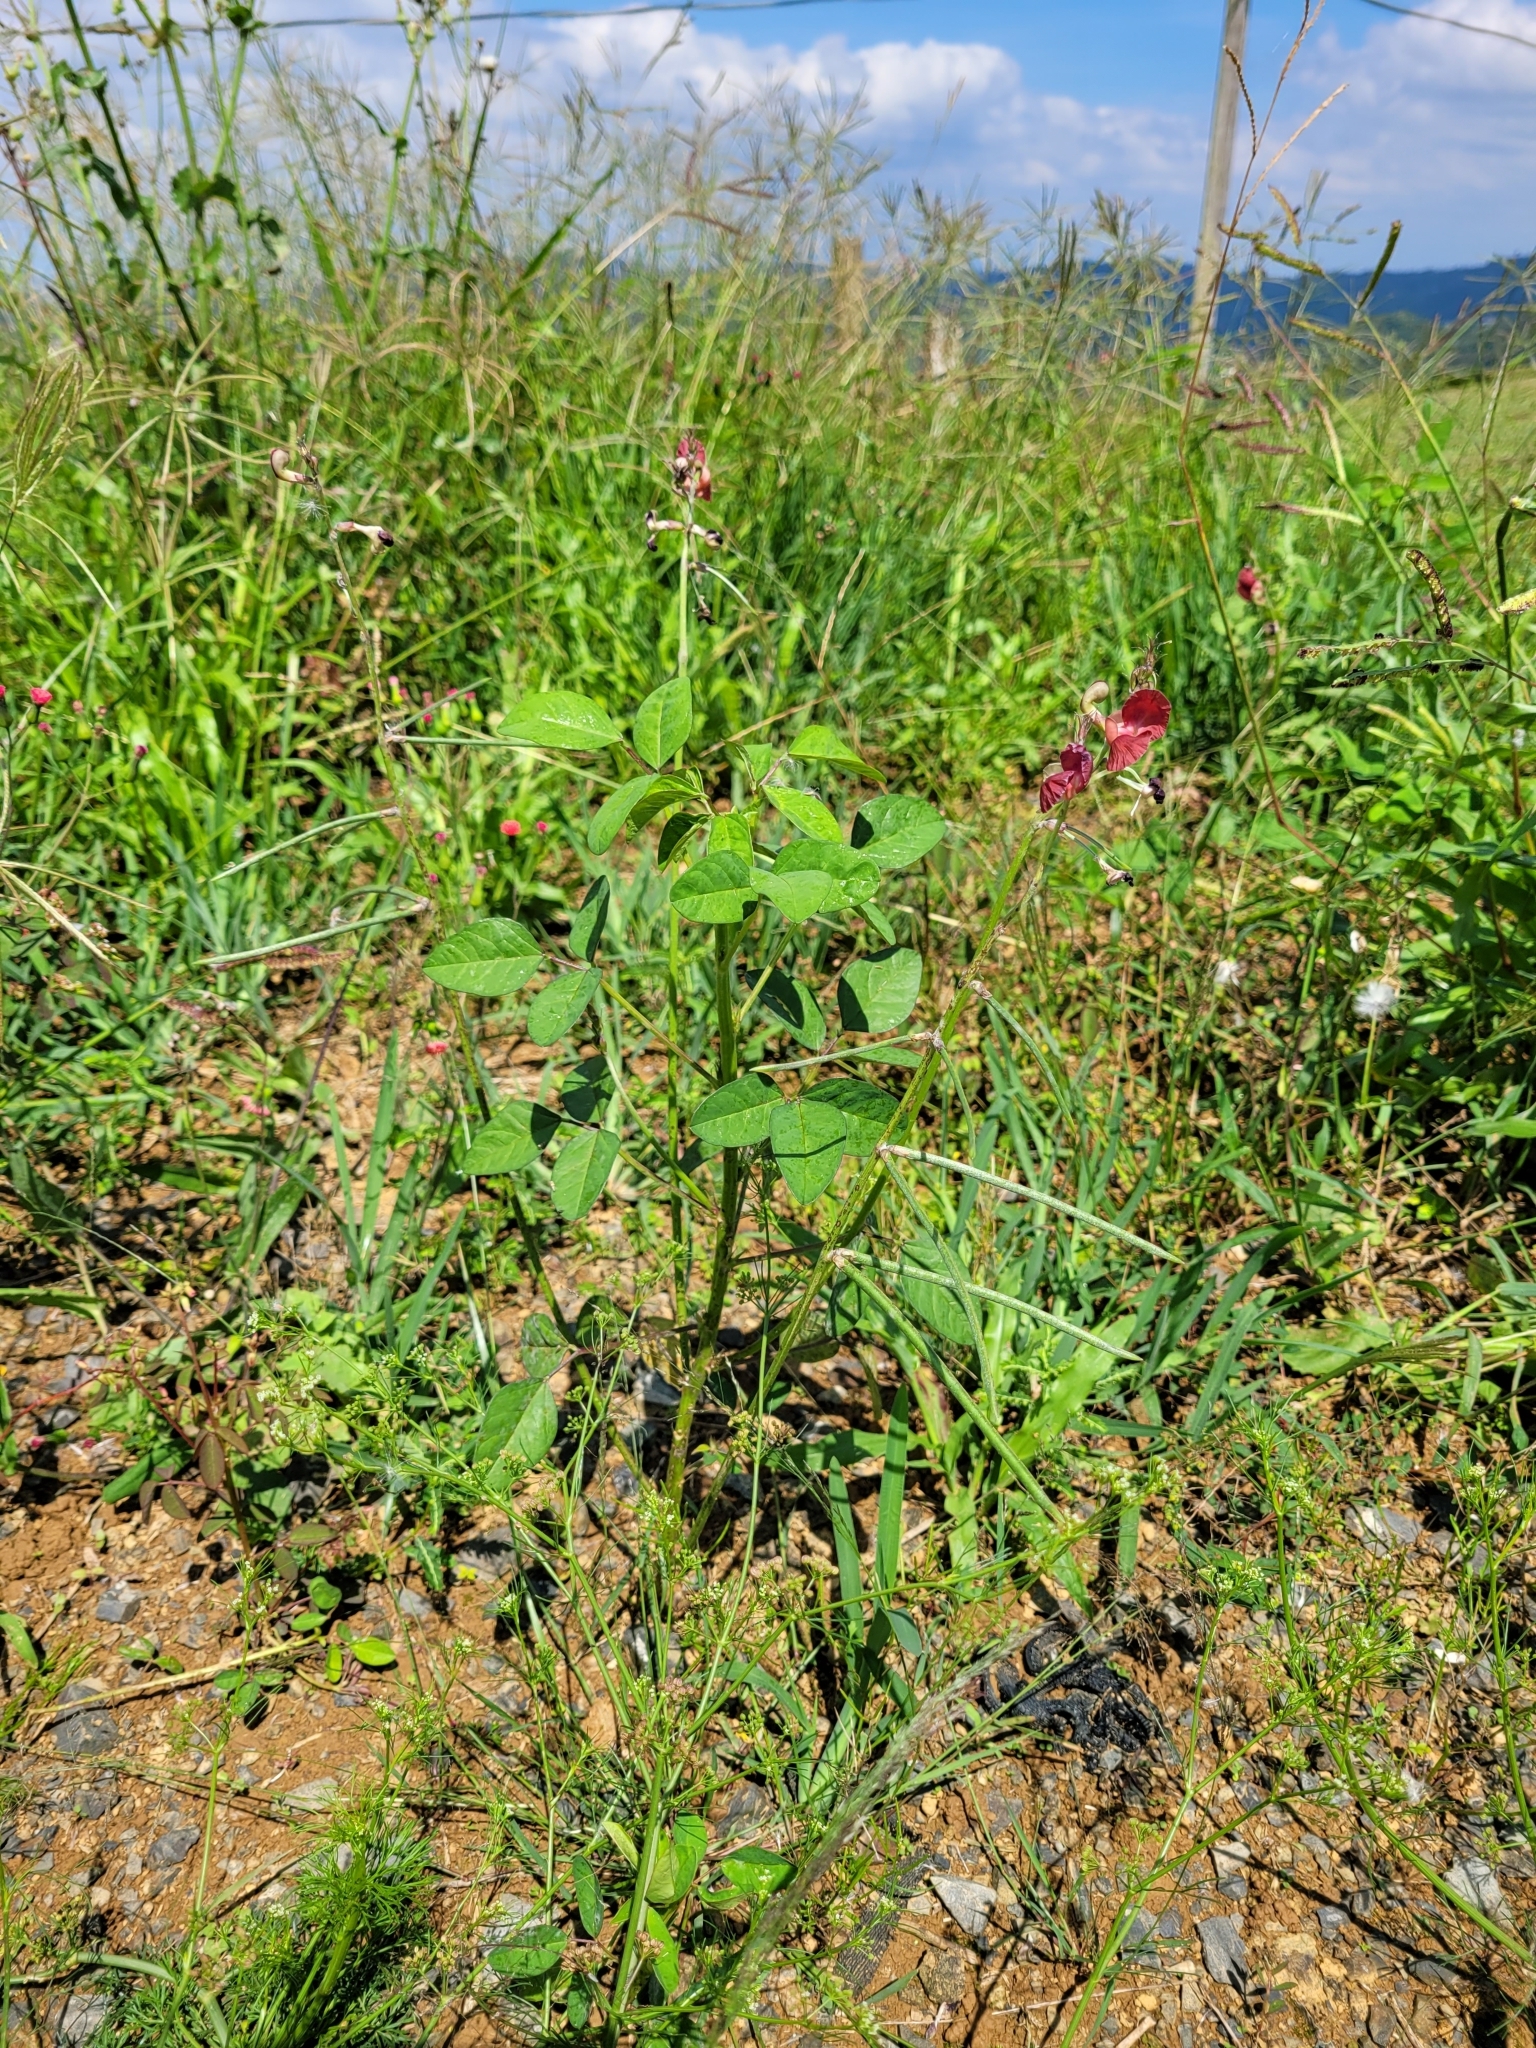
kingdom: Plantae
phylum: Tracheophyta
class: Magnoliopsida
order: Fabales
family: Fabaceae
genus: Macroptilium
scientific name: Macroptilium lathyroides
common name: Wild bushbean
